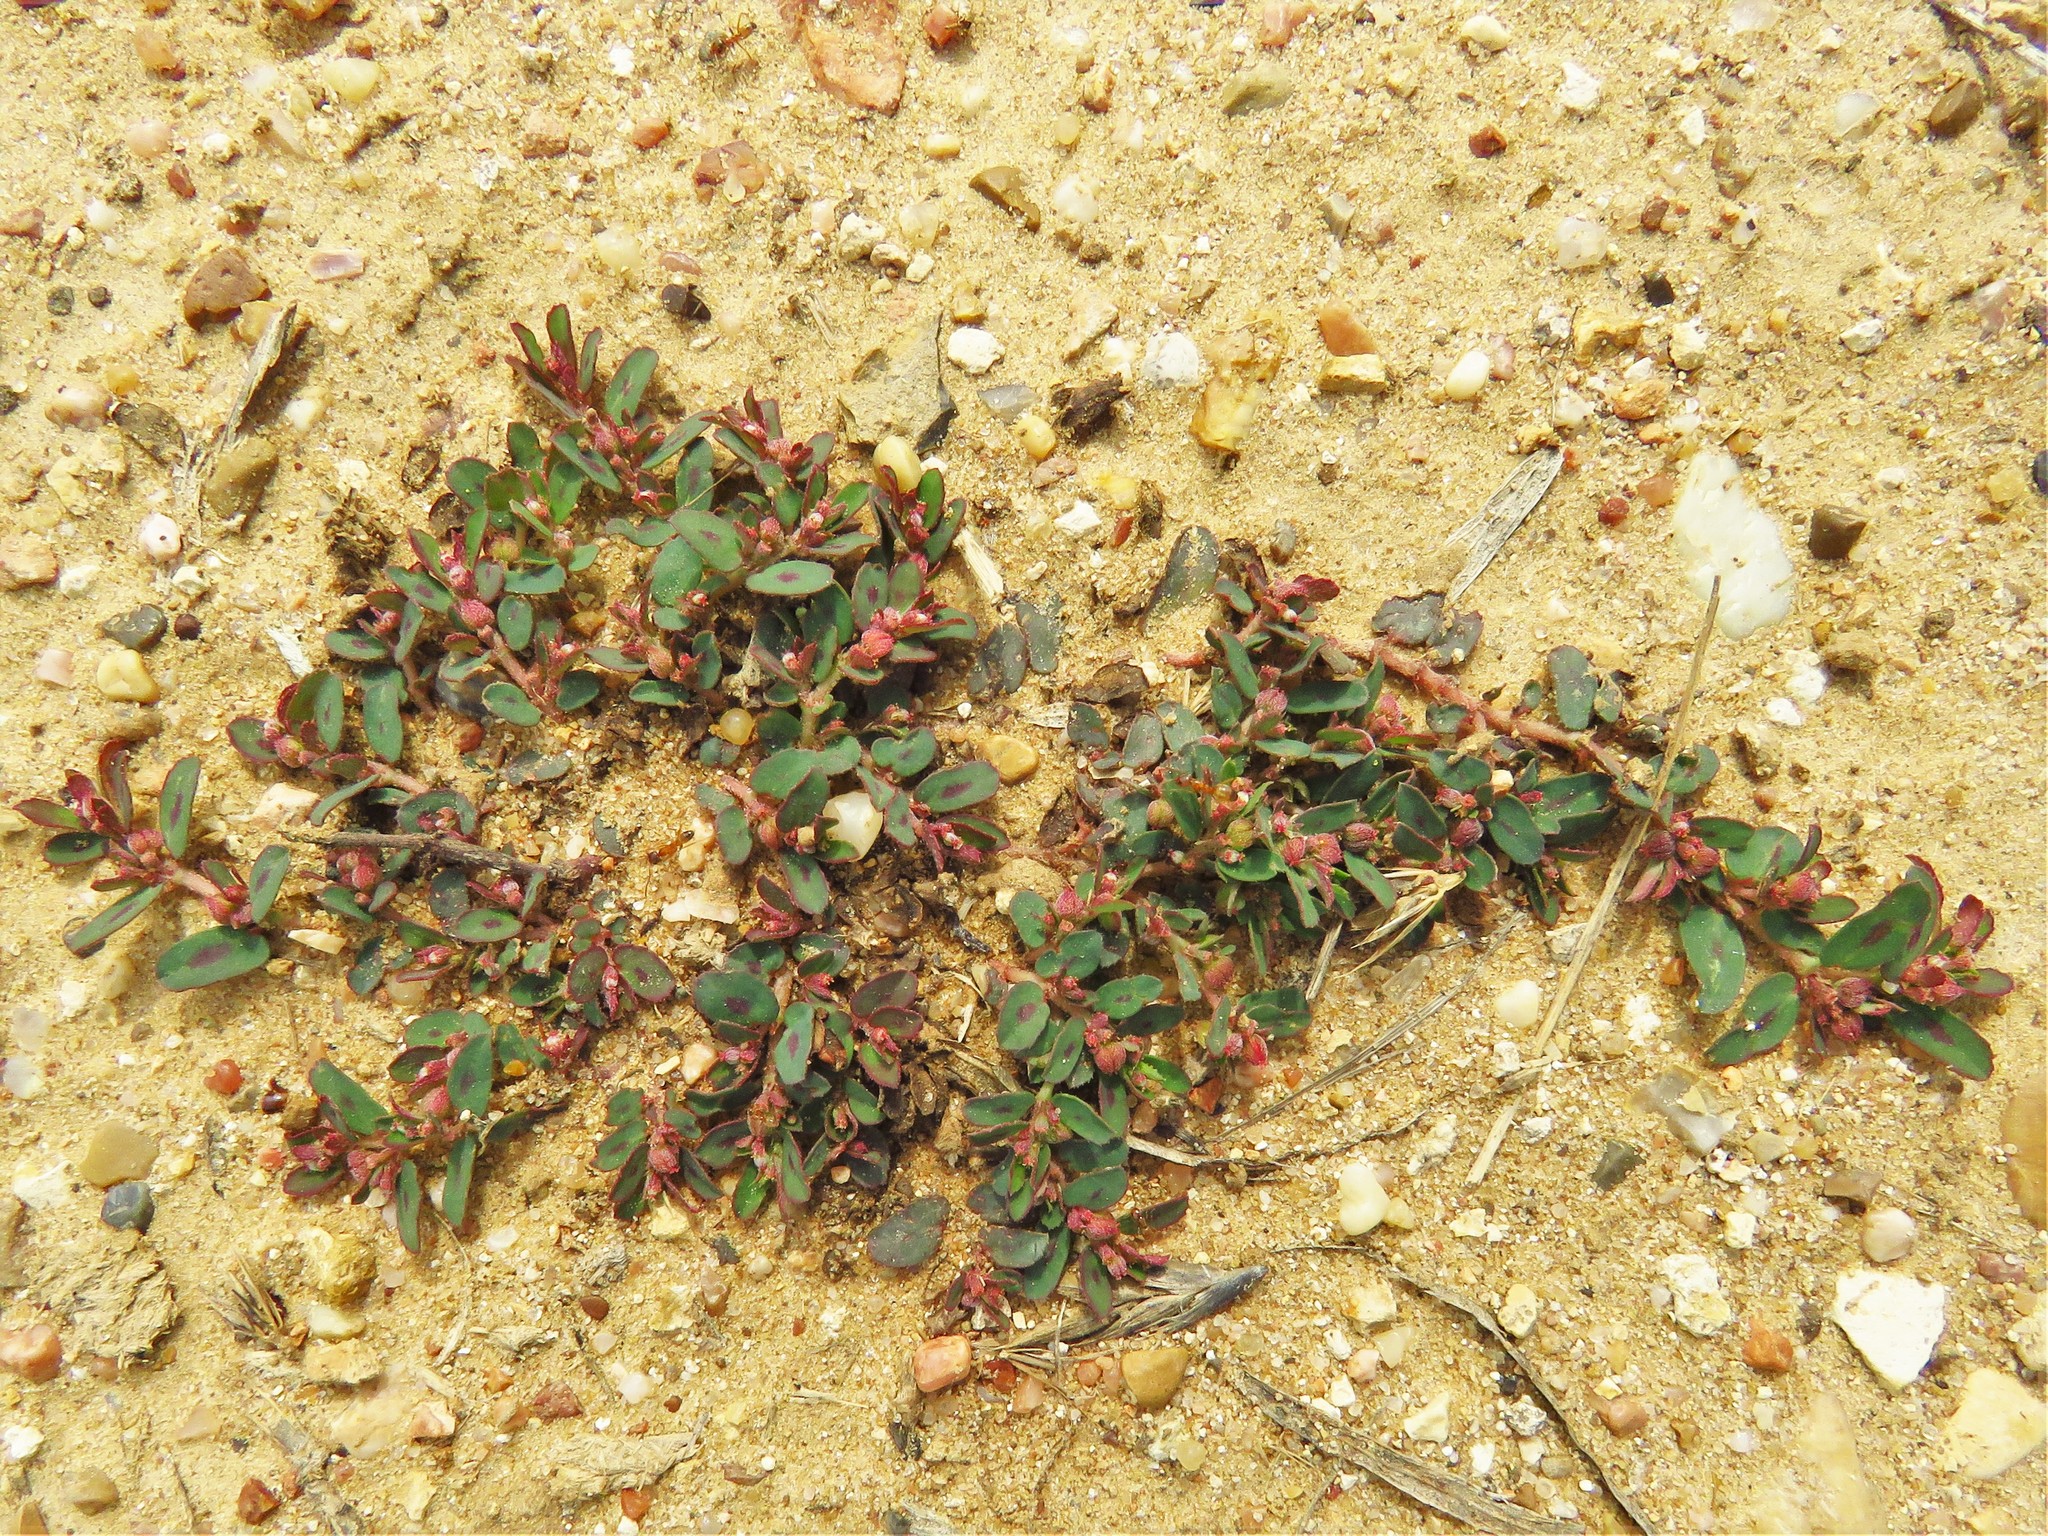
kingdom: Plantae
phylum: Tracheophyta
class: Magnoliopsida
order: Malpighiales
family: Euphorbiaceae
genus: Euphorbia
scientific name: Euphorbia maculata
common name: Spotted spurge
